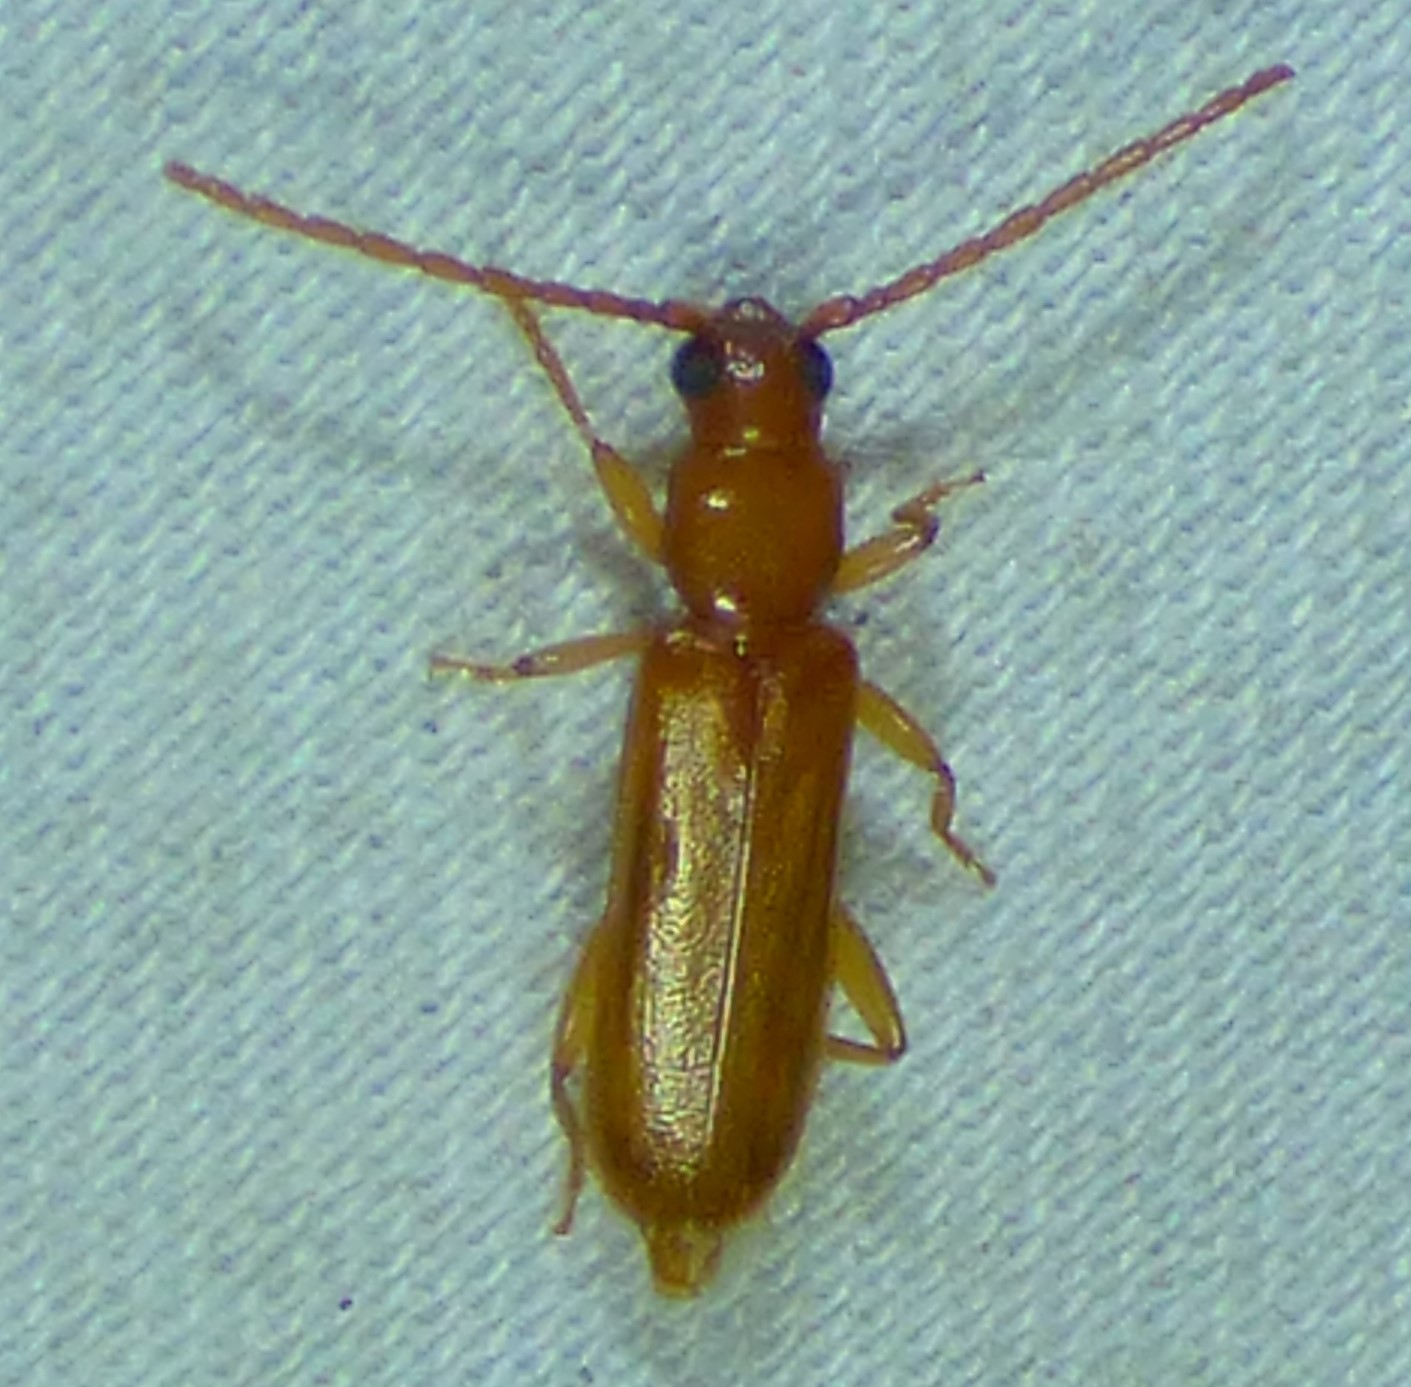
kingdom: Animalia
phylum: Arthropoda
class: Insecta
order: Coleoptera
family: Cerambycidae
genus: Smodicum
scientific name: Smodicum cucujiforme
